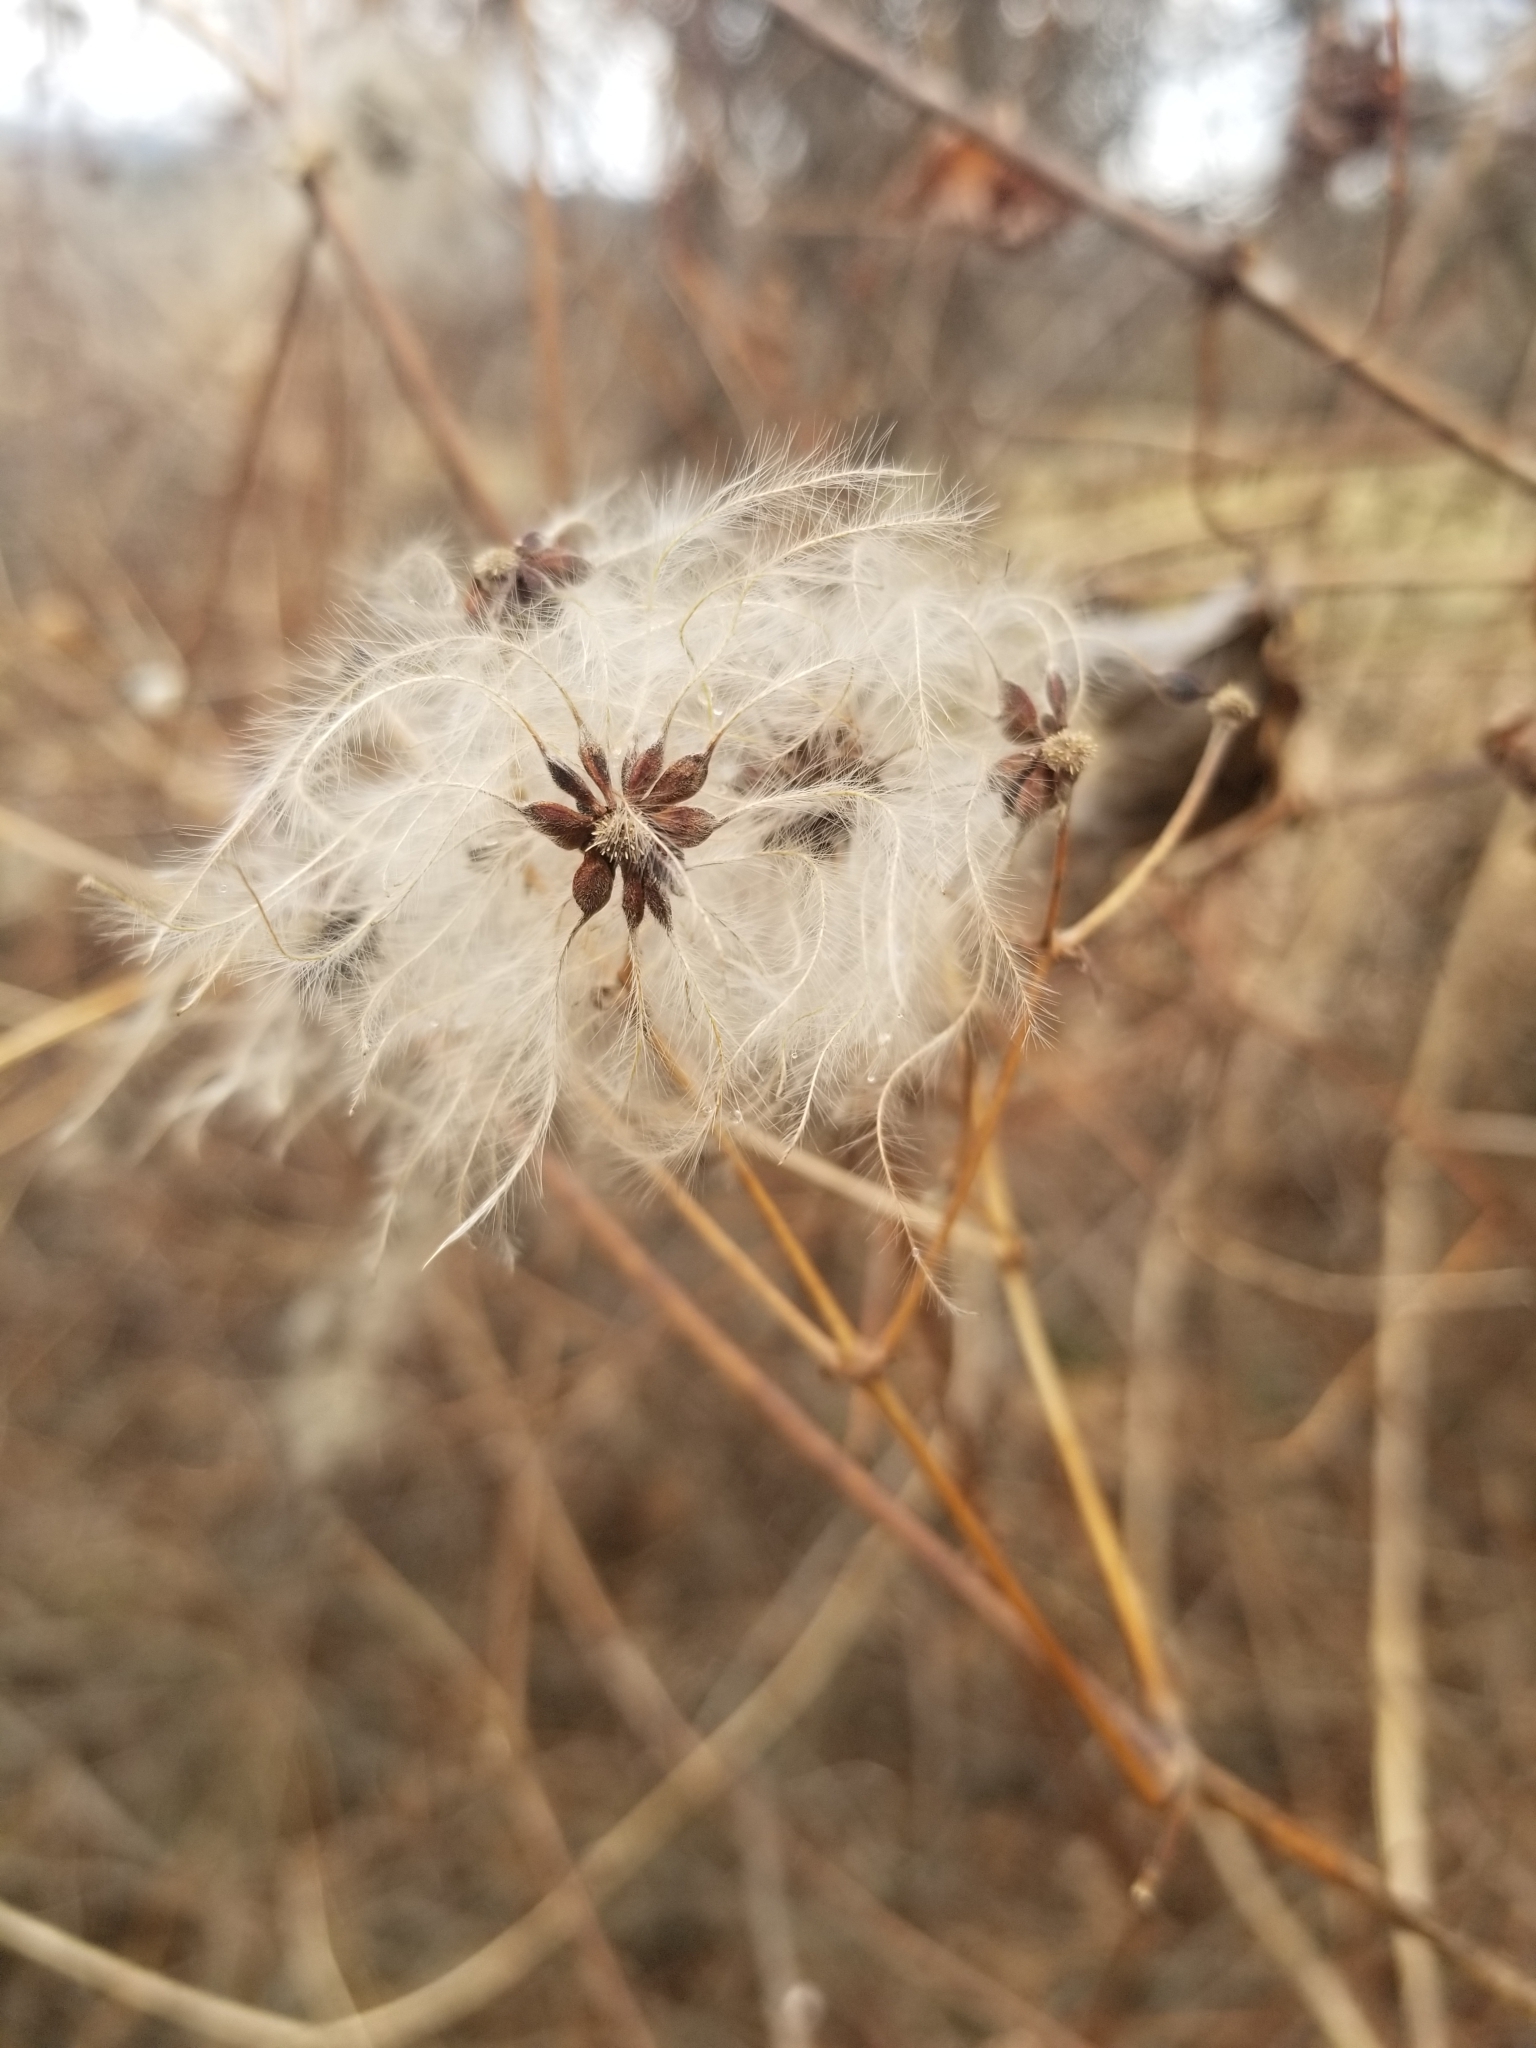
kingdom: Plantae
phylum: Tracheophyta
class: Magnoliopsida
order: Ranunculales
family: Ranunculaceae
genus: Clematis
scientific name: Clematis virginiana
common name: Virgin's-bower
